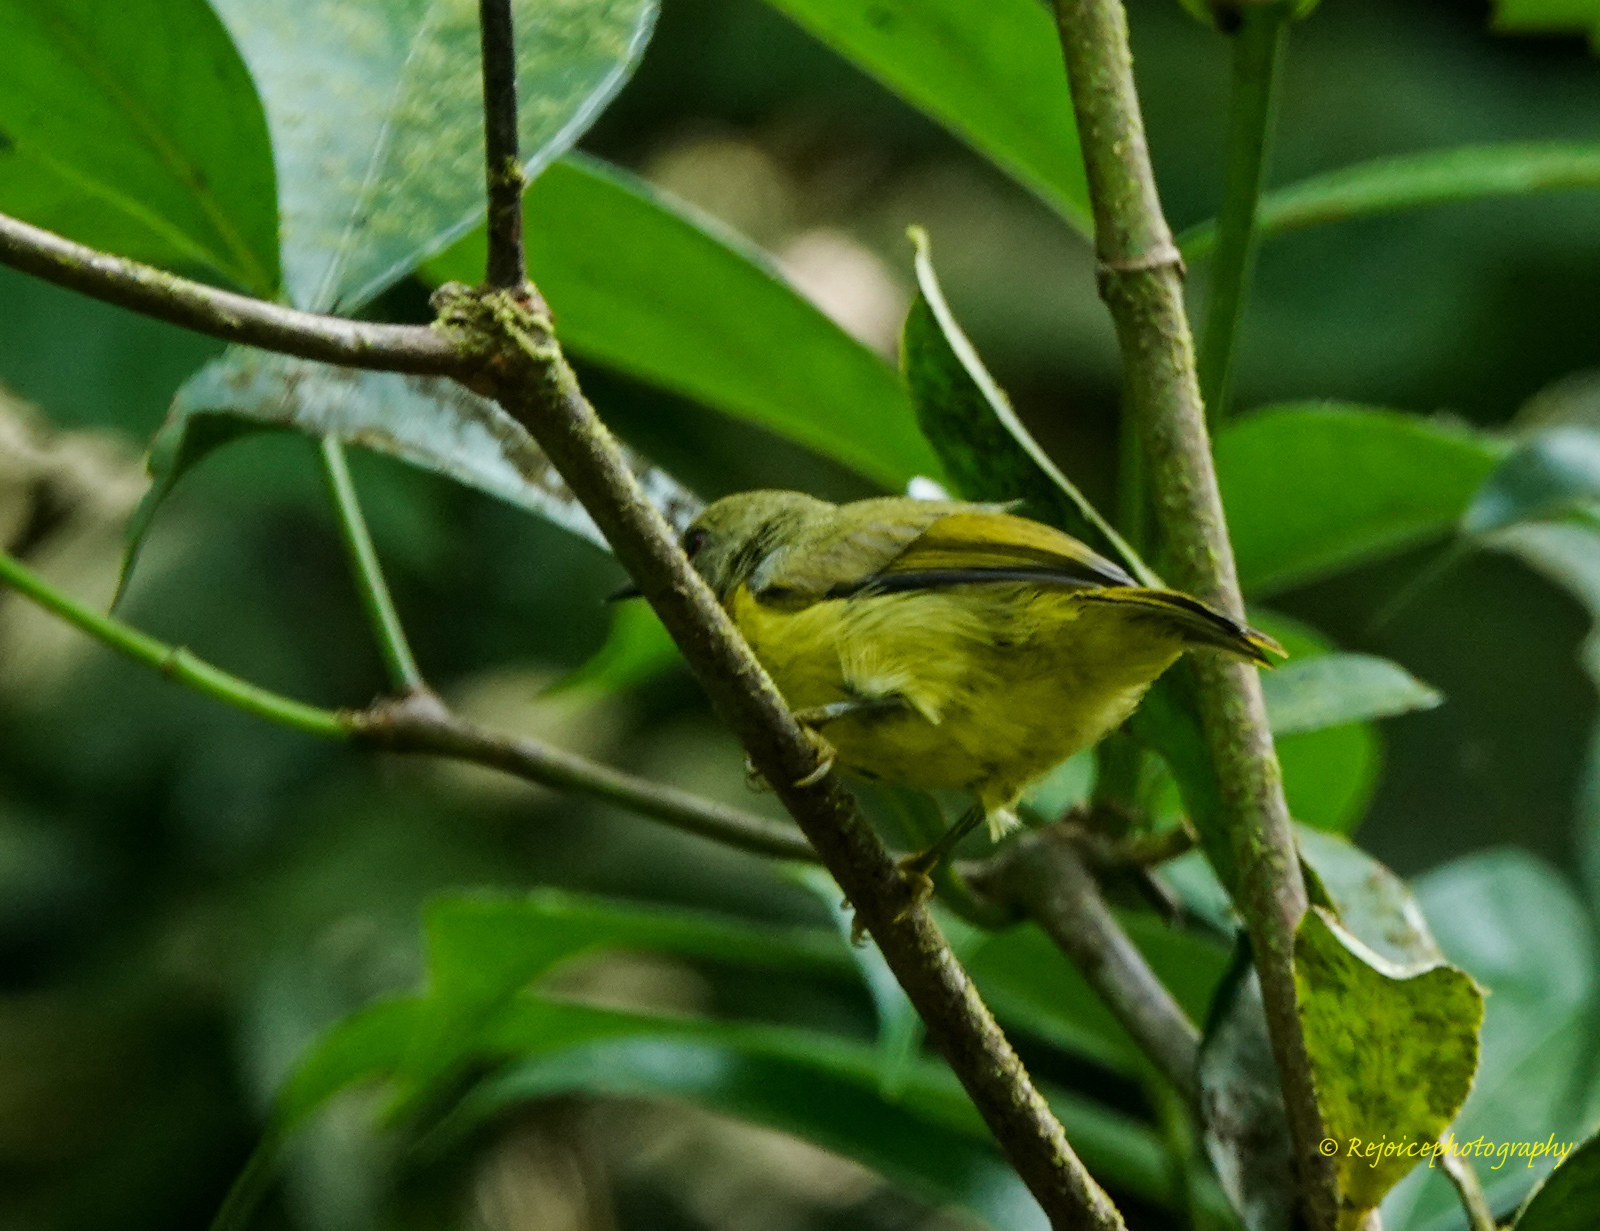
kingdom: Animalia
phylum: Chordata
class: Aves
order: Passeriformes
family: Nectariniidae
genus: Chalcoparia
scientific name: Chalcoparia singalensis
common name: Ruby-cheeked sunbird
